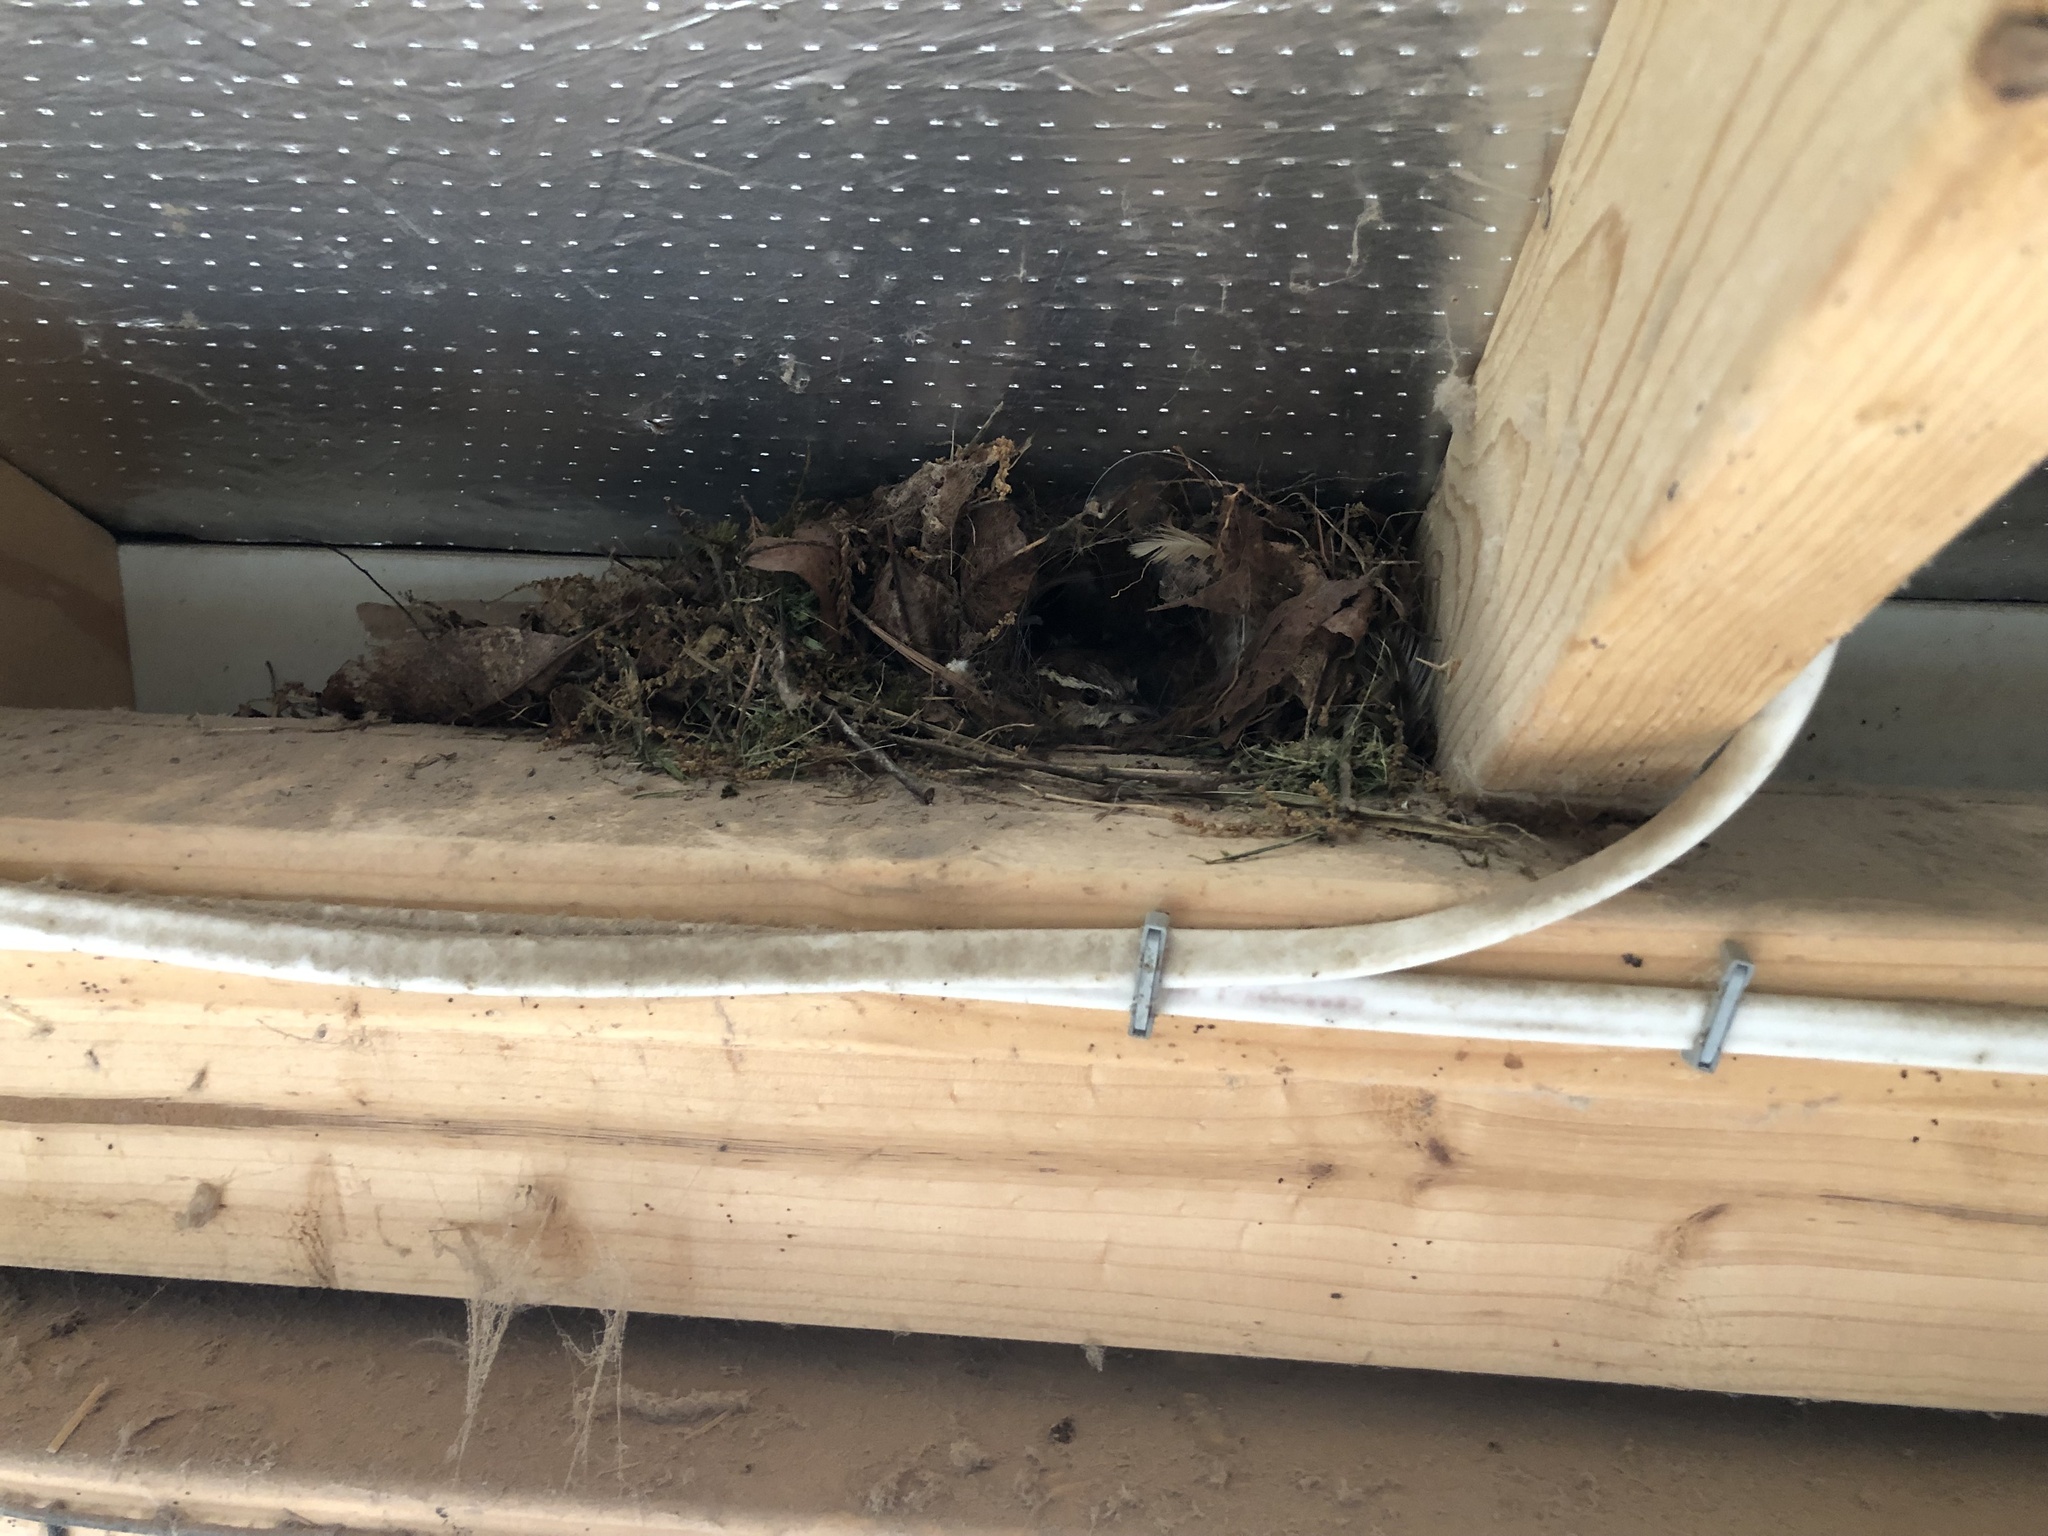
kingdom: Animalia
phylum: Chordata
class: Aves
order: Passeriformes
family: Troglodytidae
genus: Thryothorus
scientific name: Thryothorus ludovicianus
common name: Carolina wren
